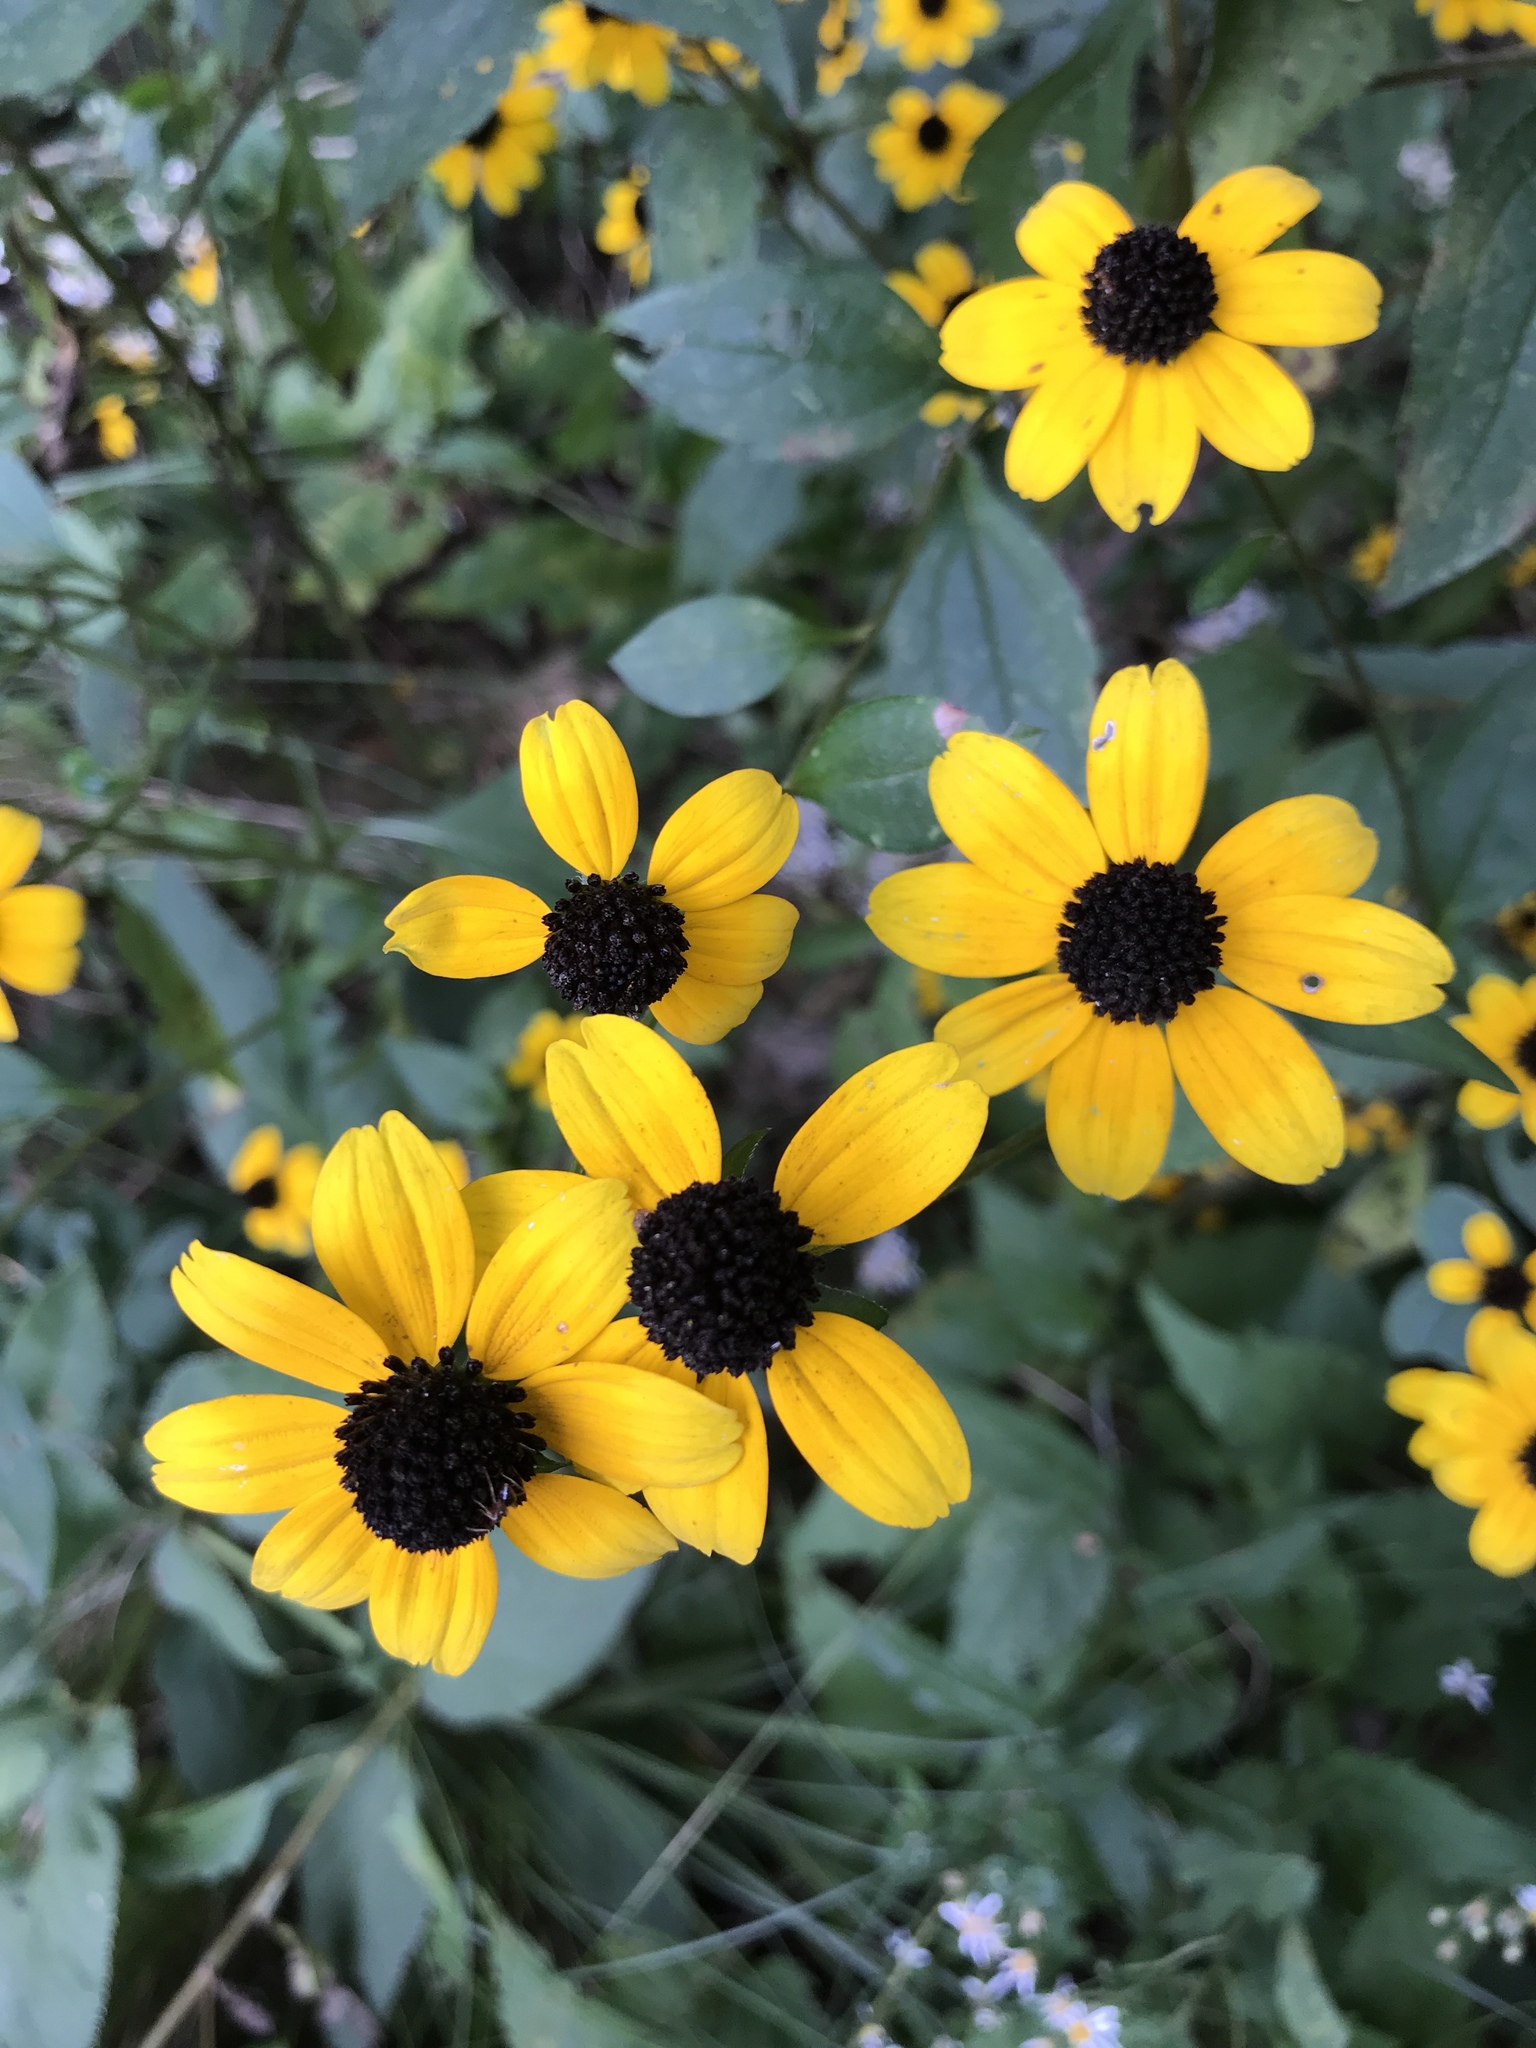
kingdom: Plantae
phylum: Tracheophyta
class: Magnoliopsida
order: Asterales
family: Asteraceae
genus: Rudbeckia
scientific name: Rudbeckia triloba
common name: Thin-leaved coneflower
